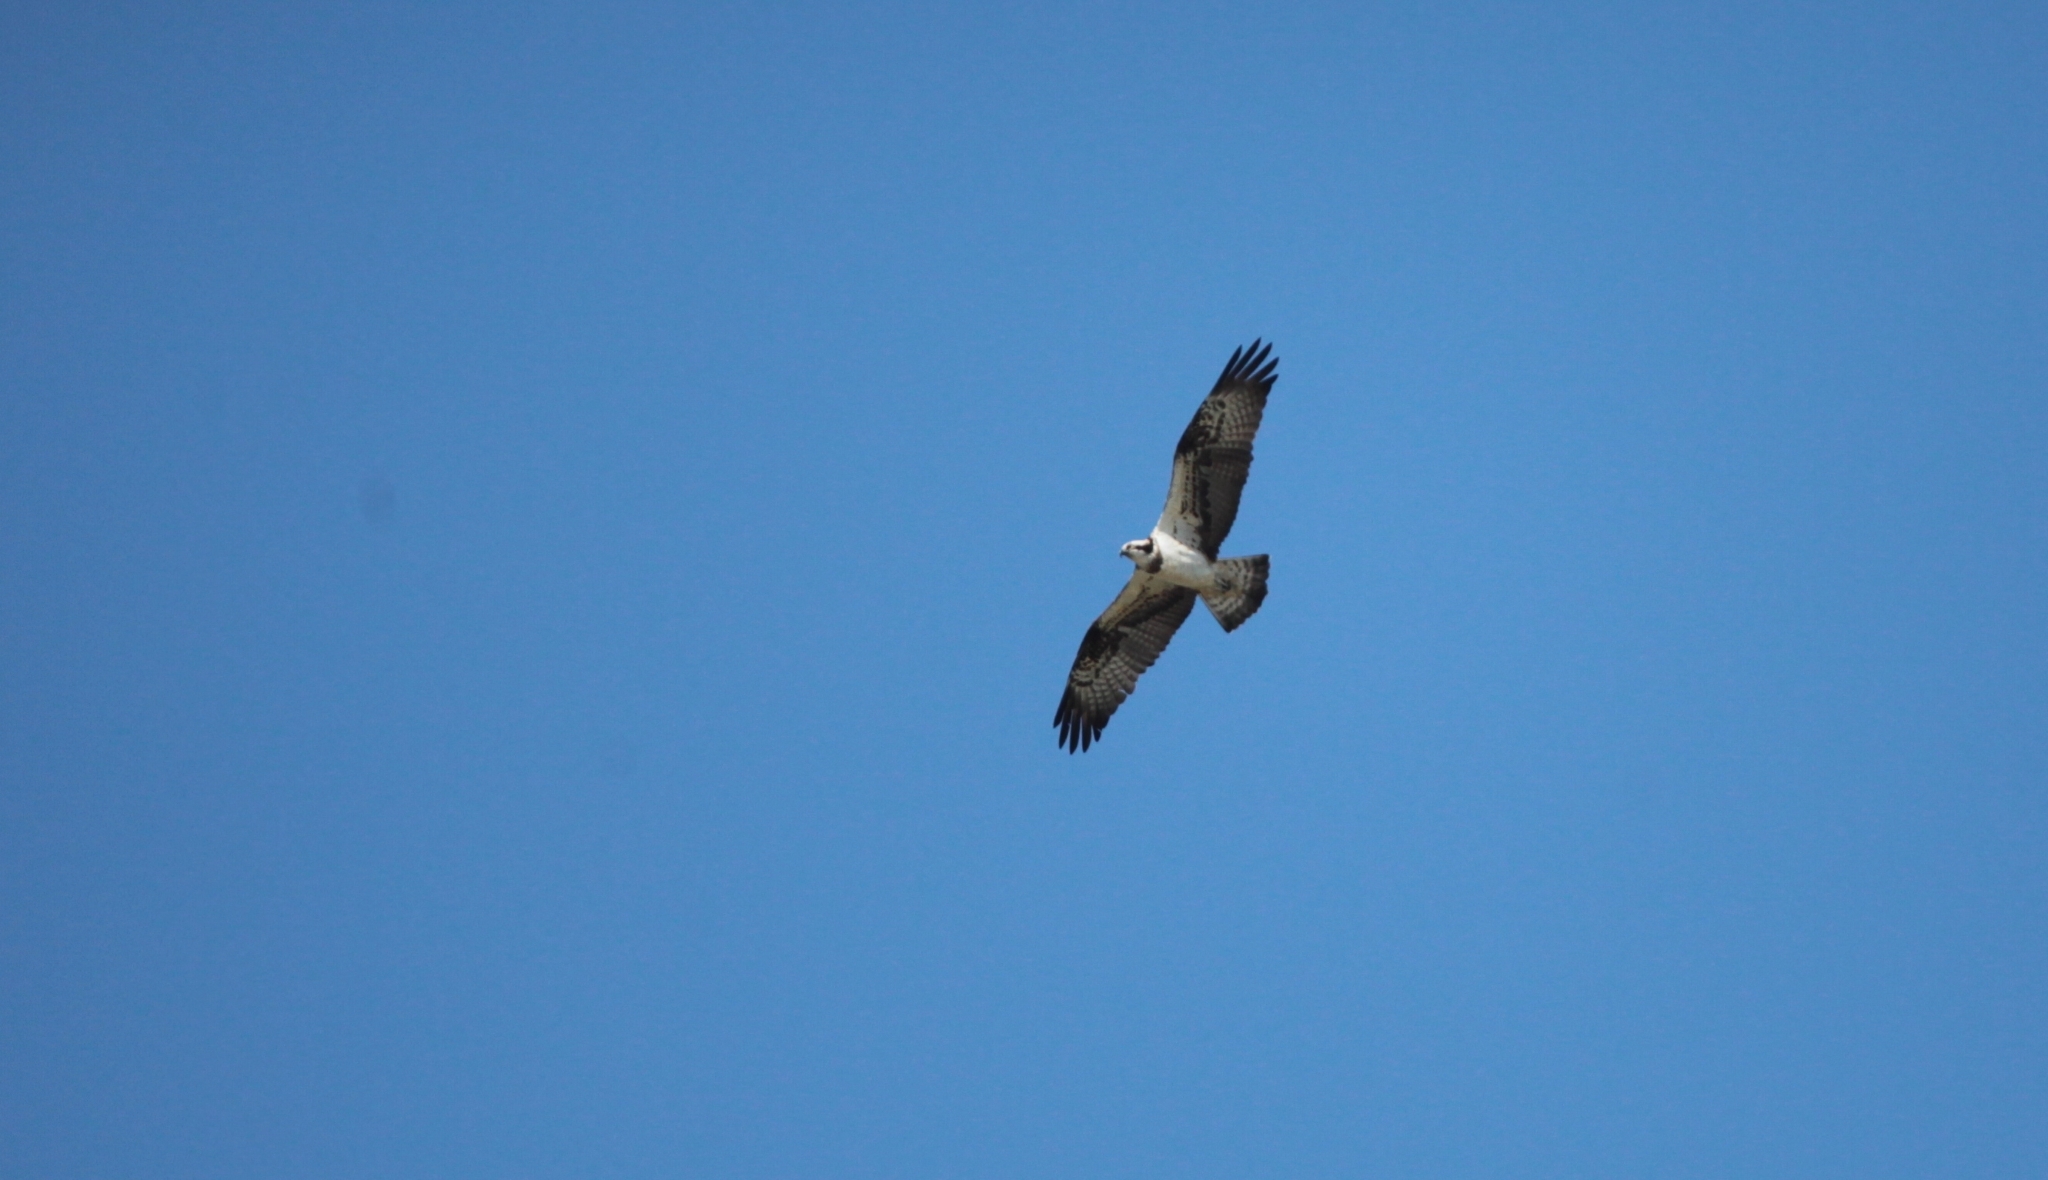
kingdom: Animalia
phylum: Chordata
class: Aves
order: Accipitriformes
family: Pandionidae
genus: Pandion
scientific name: Pandion haliaetus
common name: Osprey
